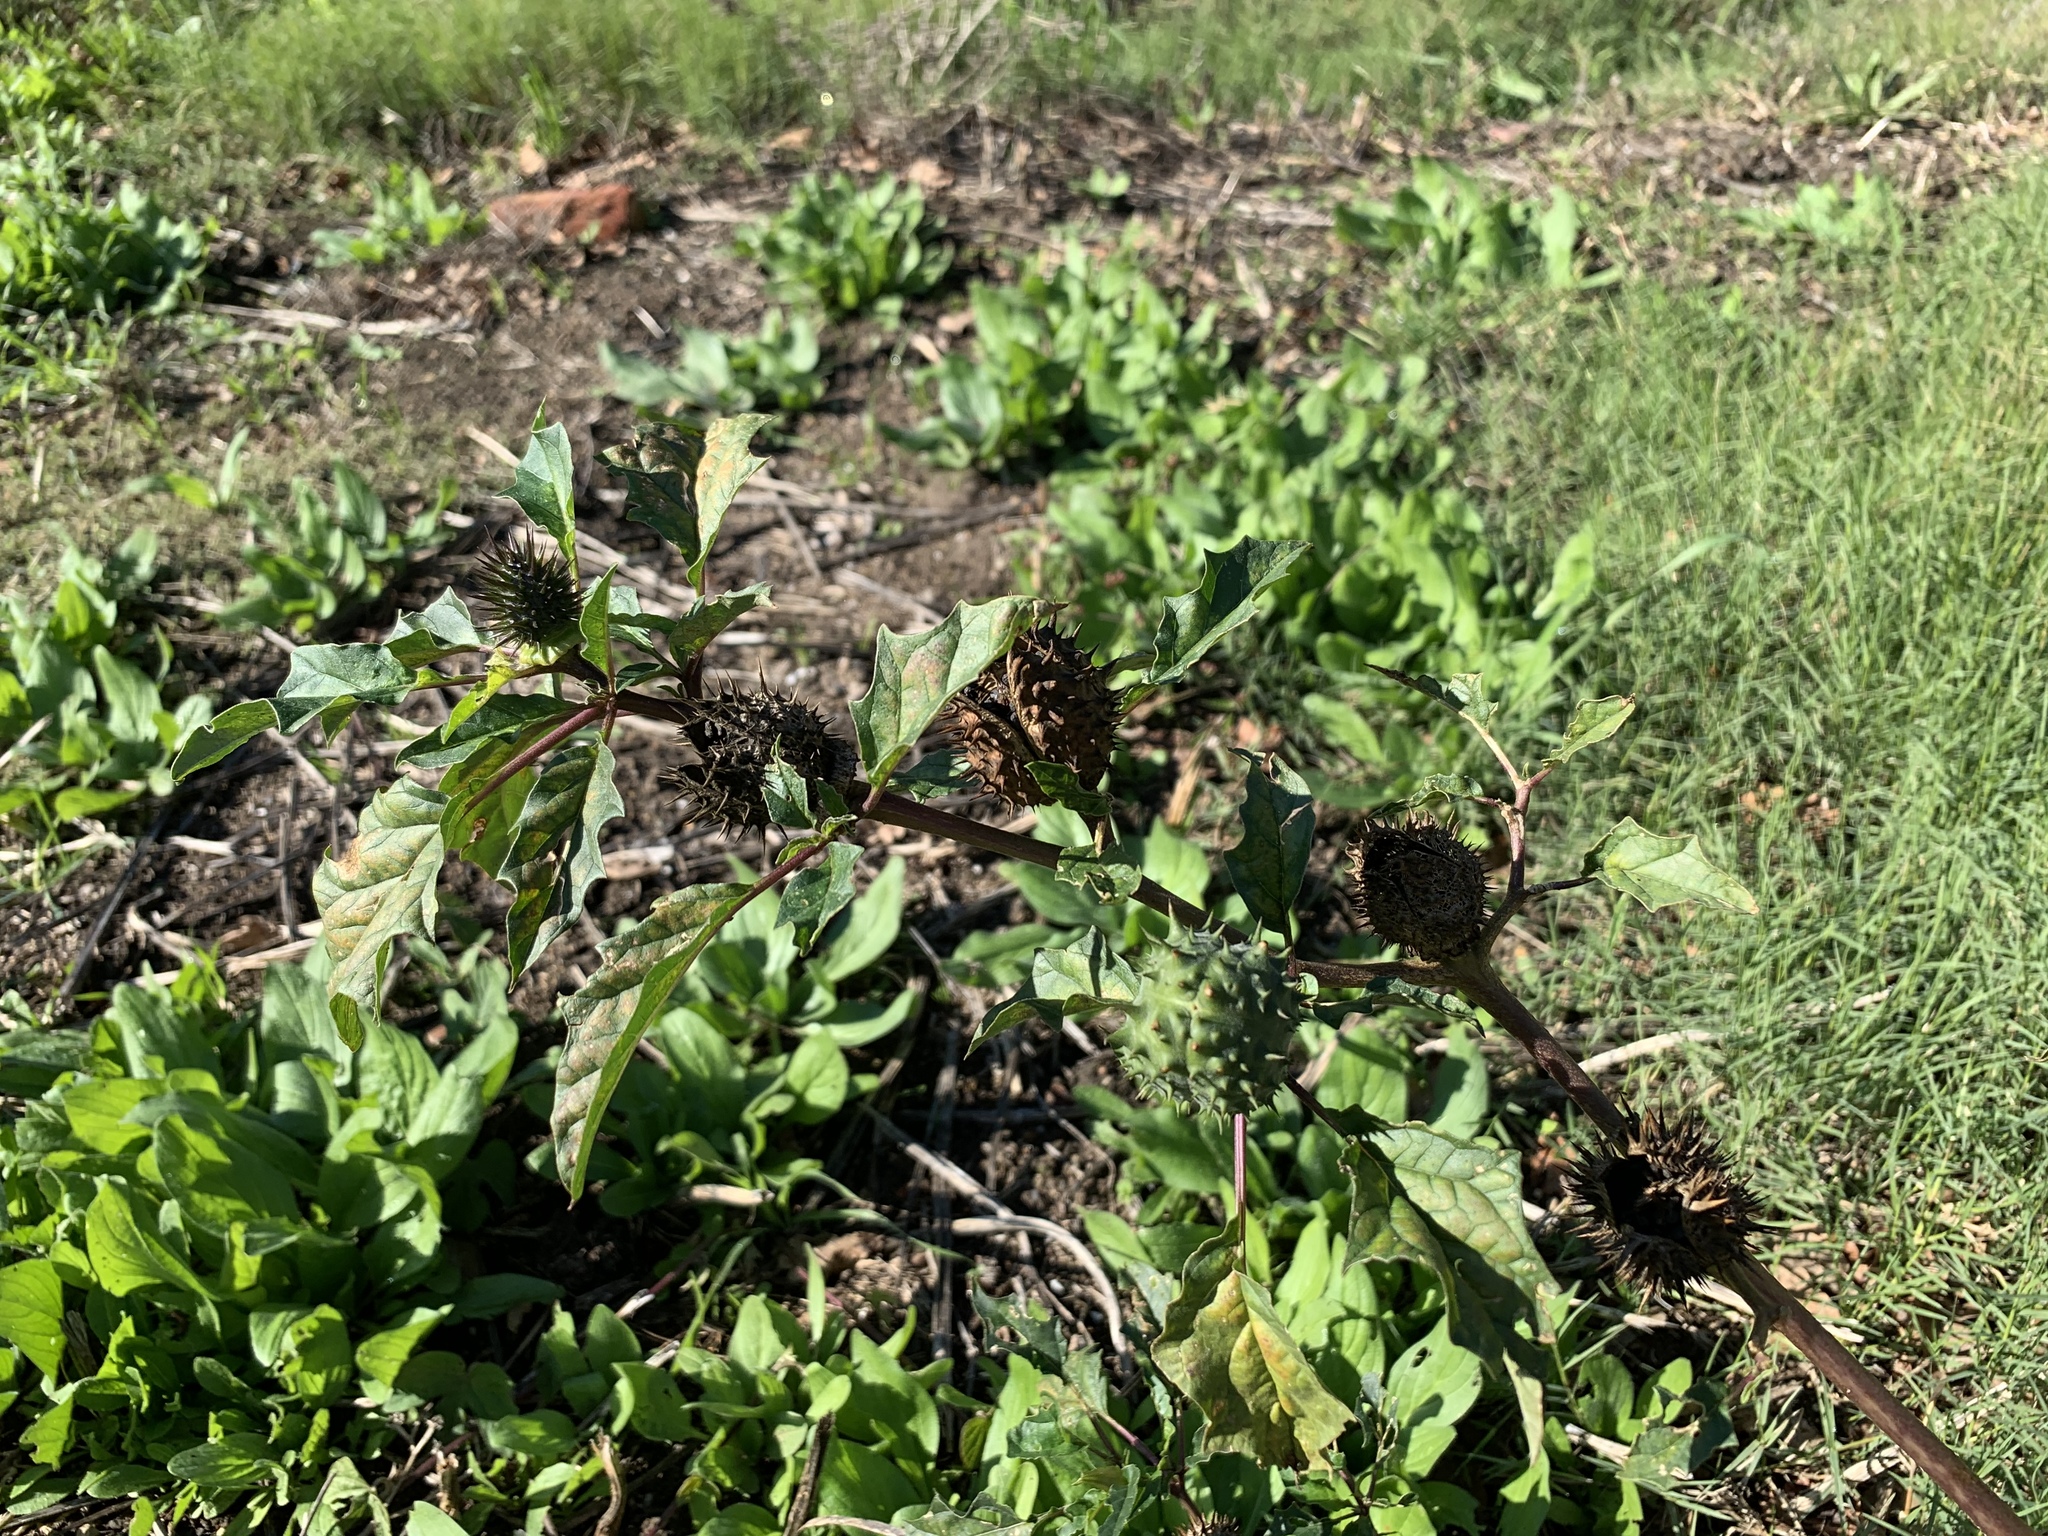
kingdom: Plantae
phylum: Tracheophyta
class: Magnoliopsida
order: Solanales
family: Solanaceae
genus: Datura
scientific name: Datura stramonium
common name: Thorn-apple
